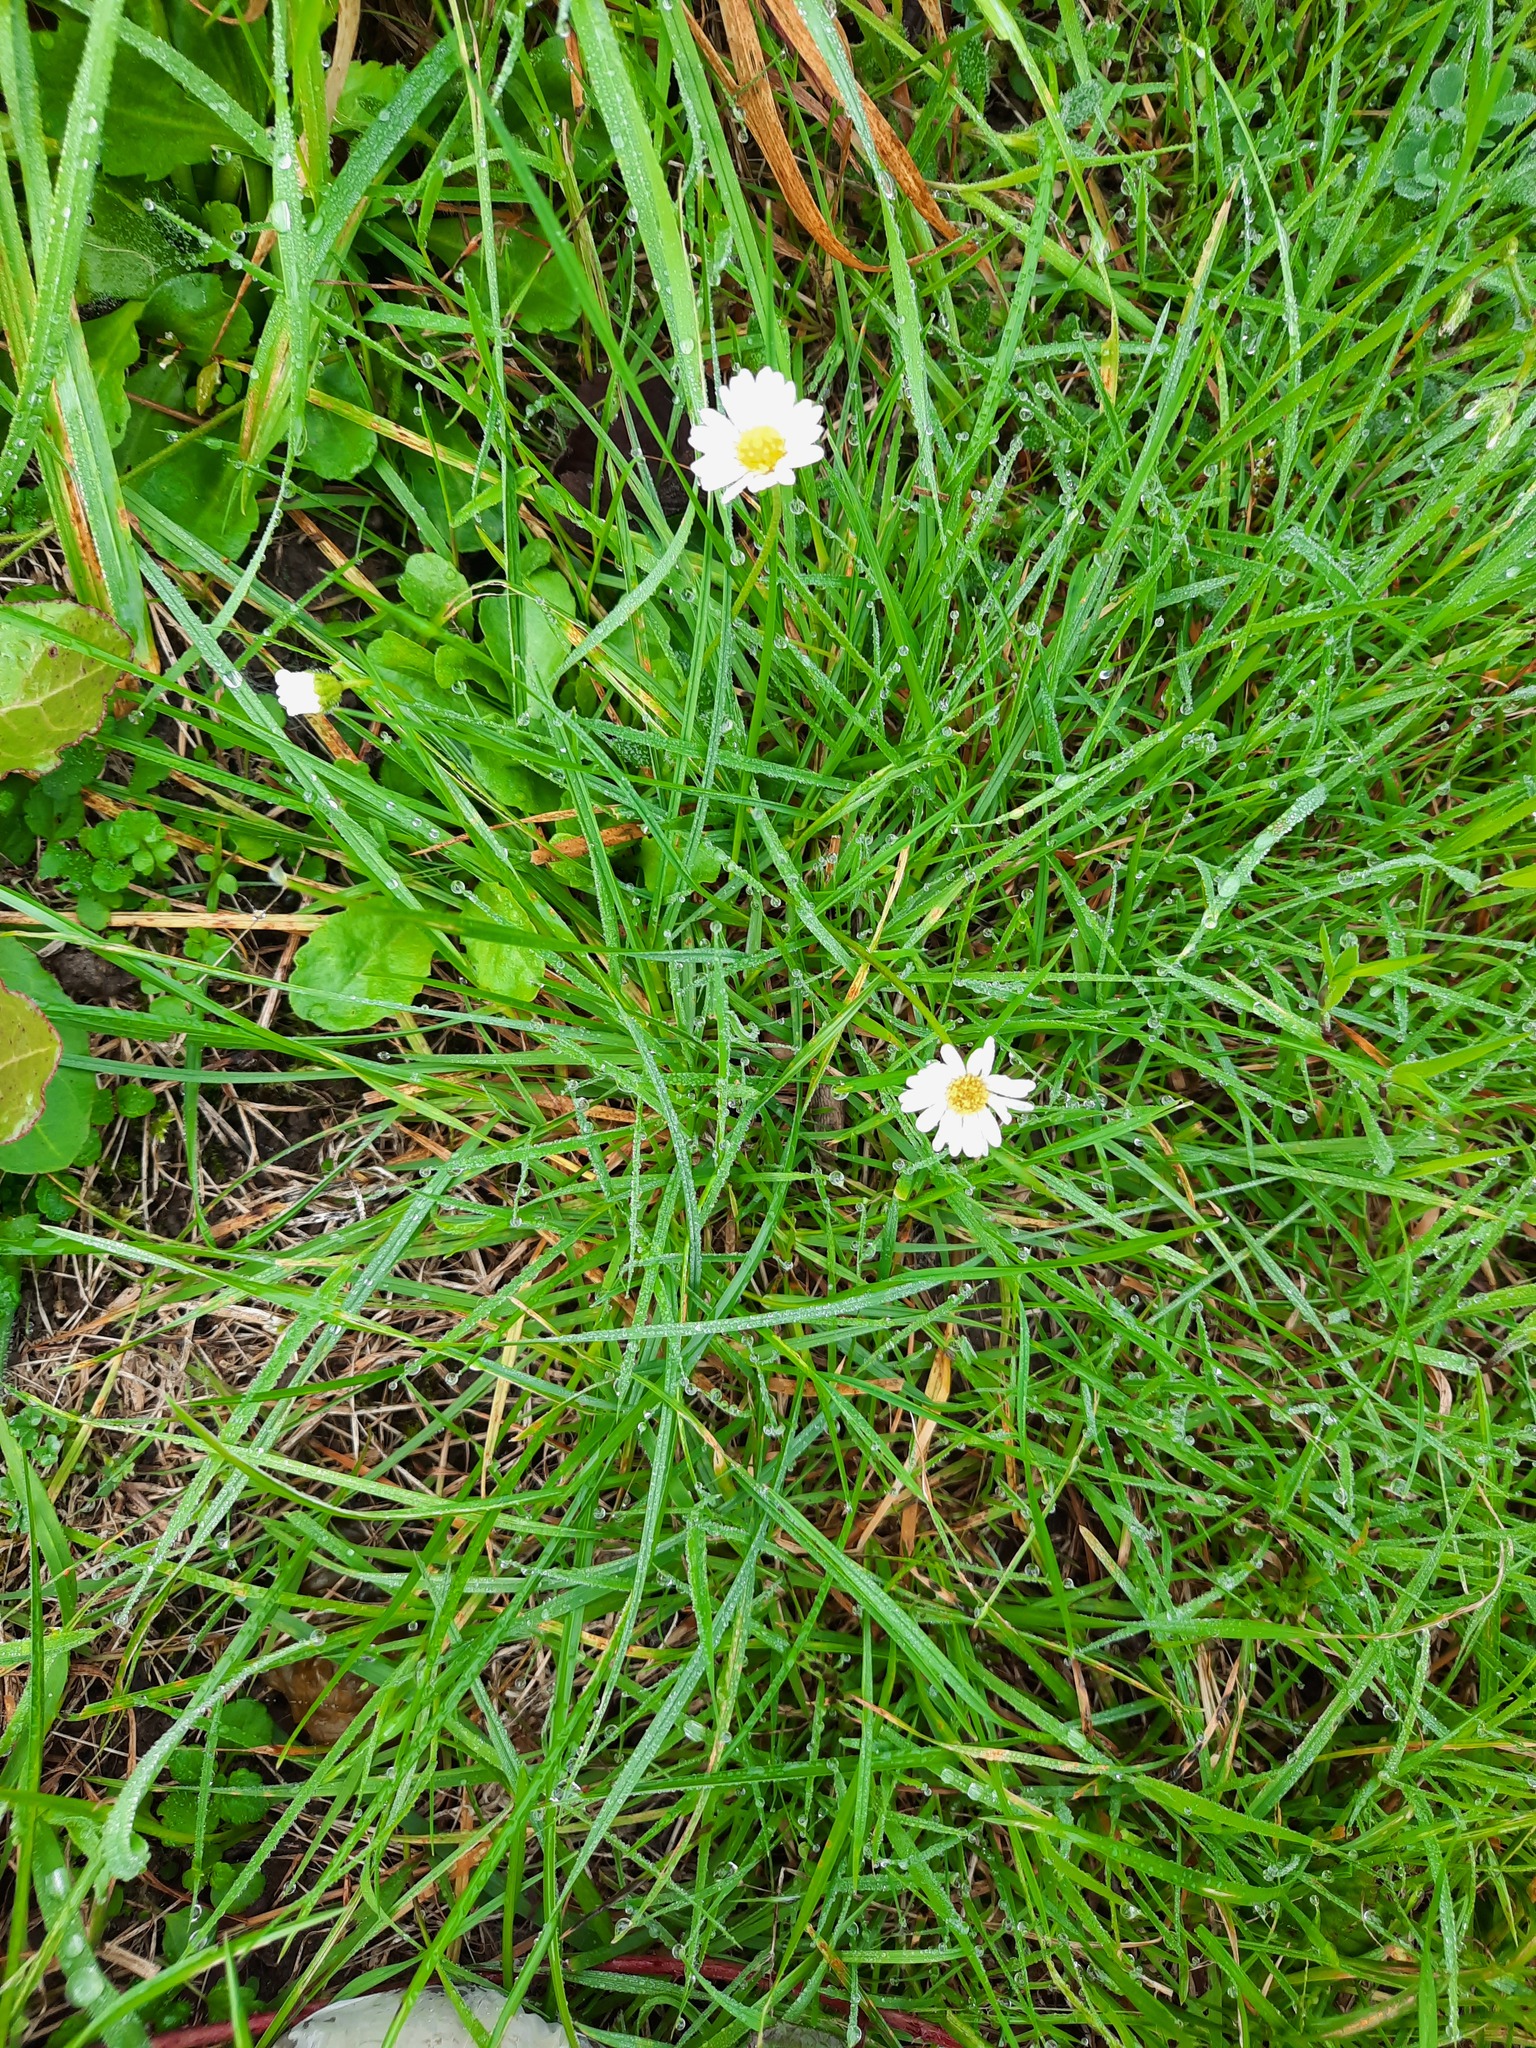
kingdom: Plantae
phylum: Tracheophyta
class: Magnoliopsida
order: Asterales
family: Asteraceae
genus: Bellis
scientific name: Bellis perennis
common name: Lawndaisy
